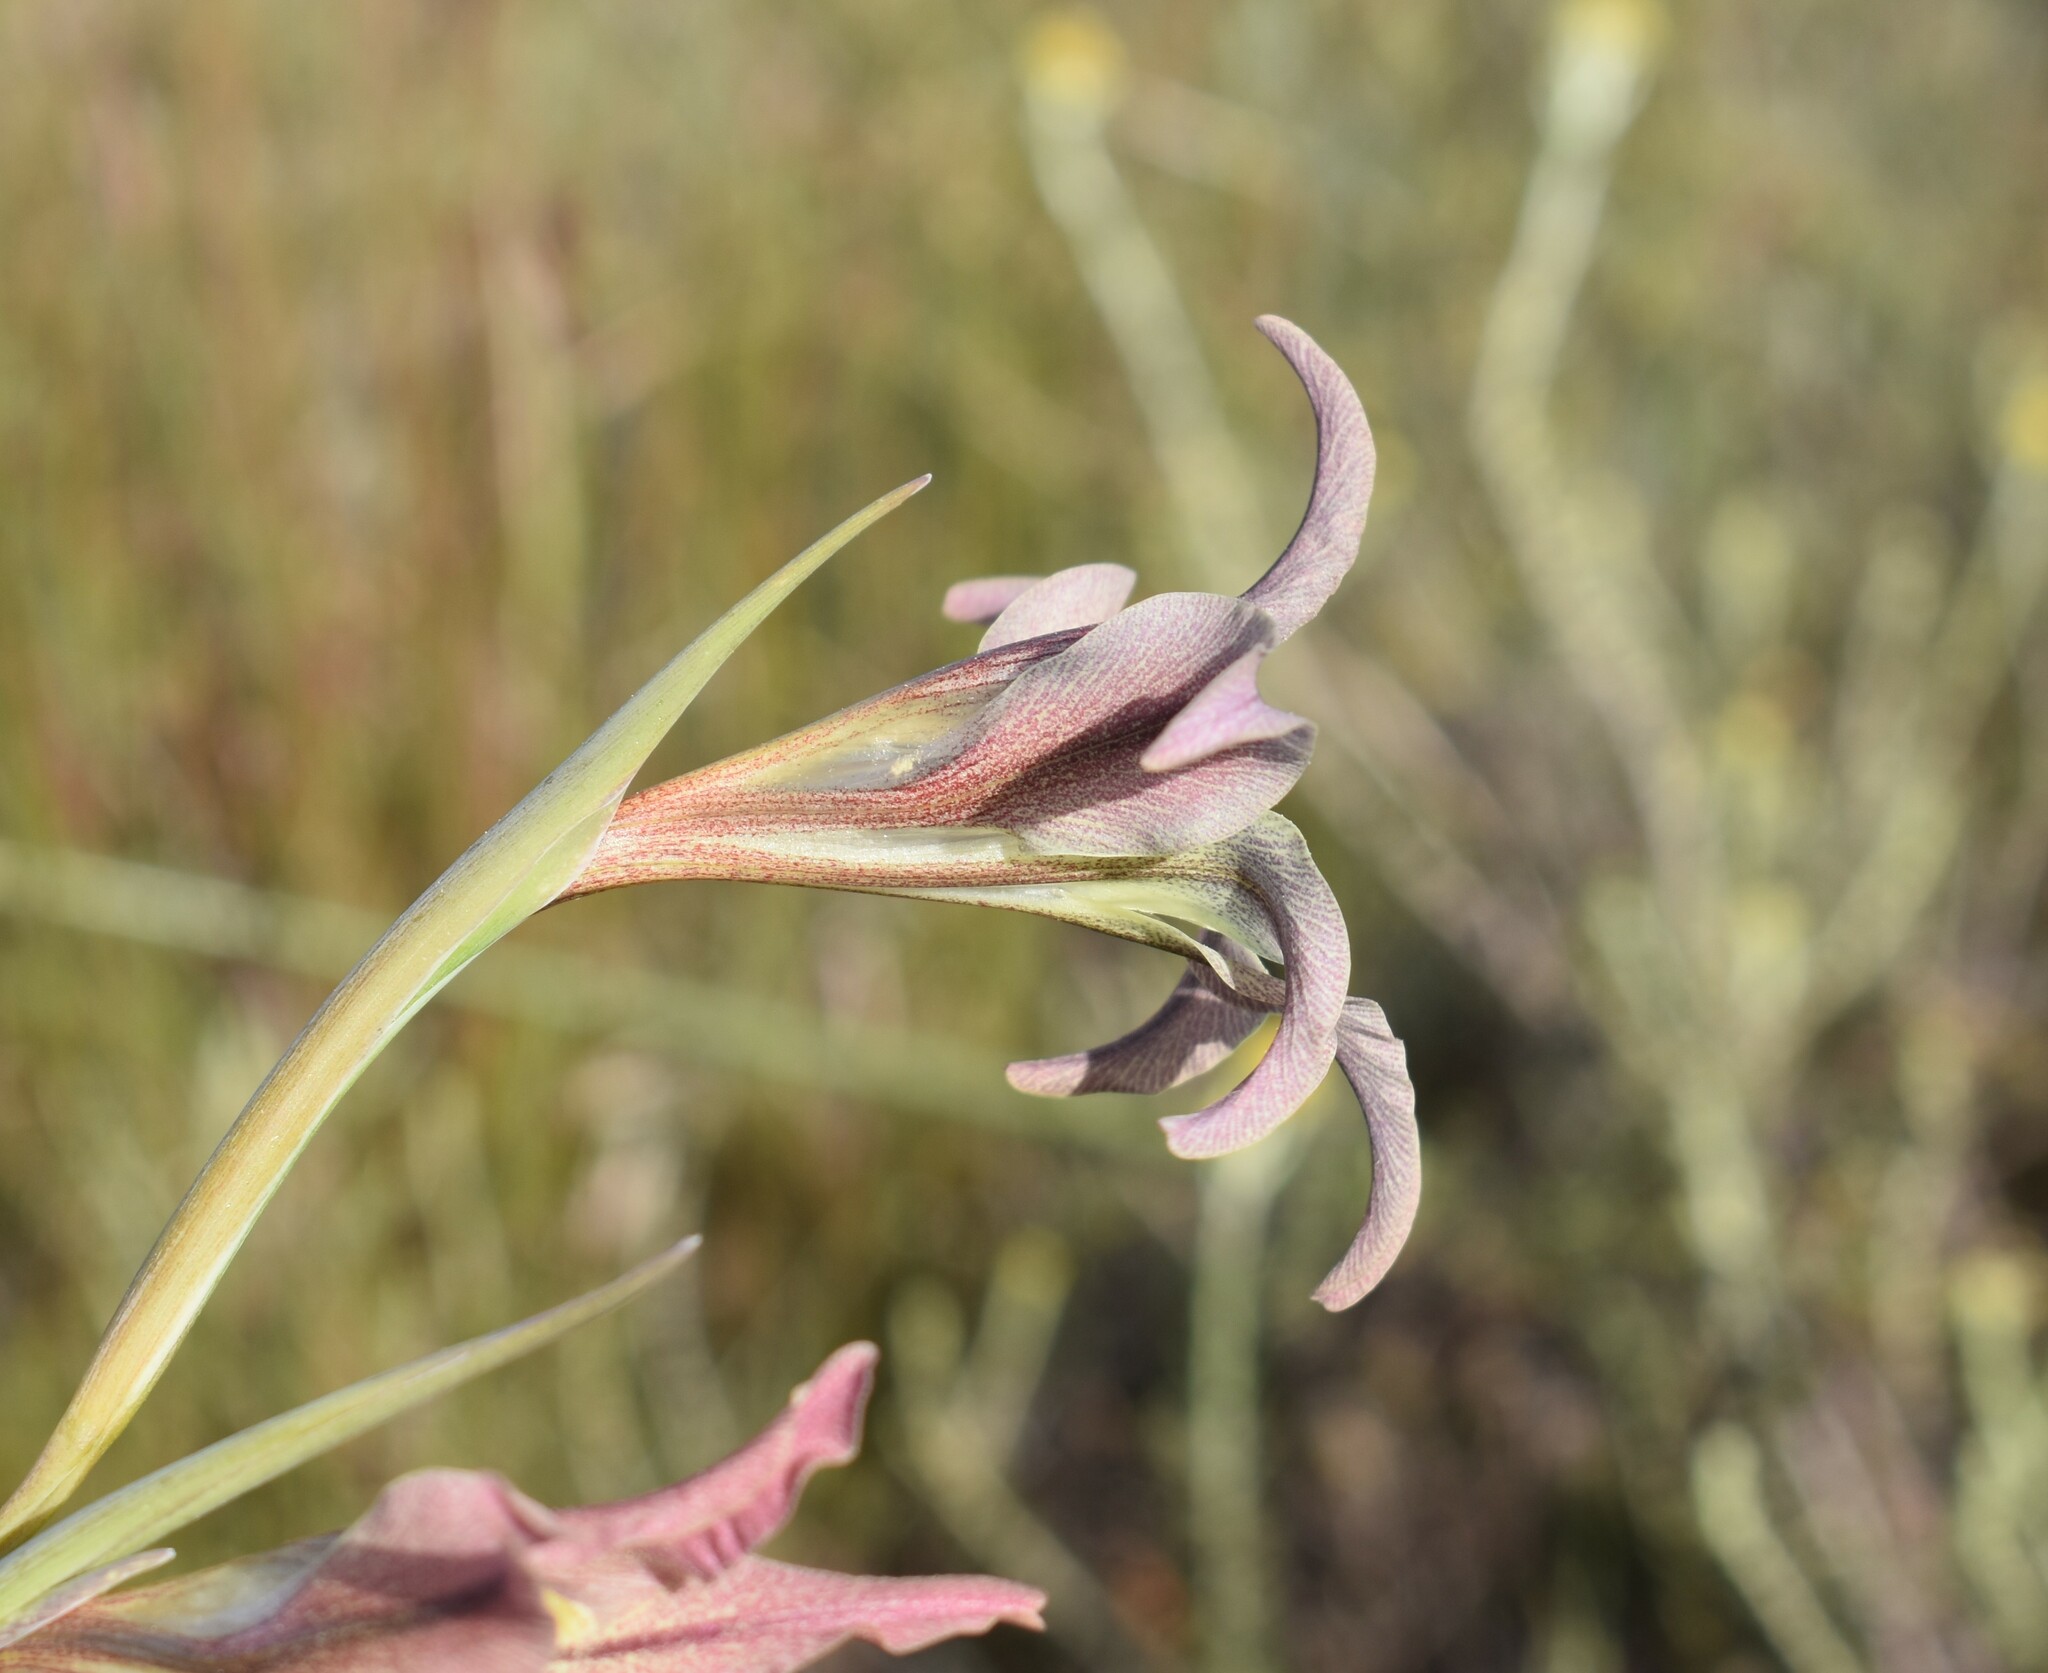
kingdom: Plantae
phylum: Tracheophyta
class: Liliopsida
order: Asparagales
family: Iridaceae
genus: Gladiolus
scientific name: Gladiolus liliaceus
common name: Large brown afrikaner
